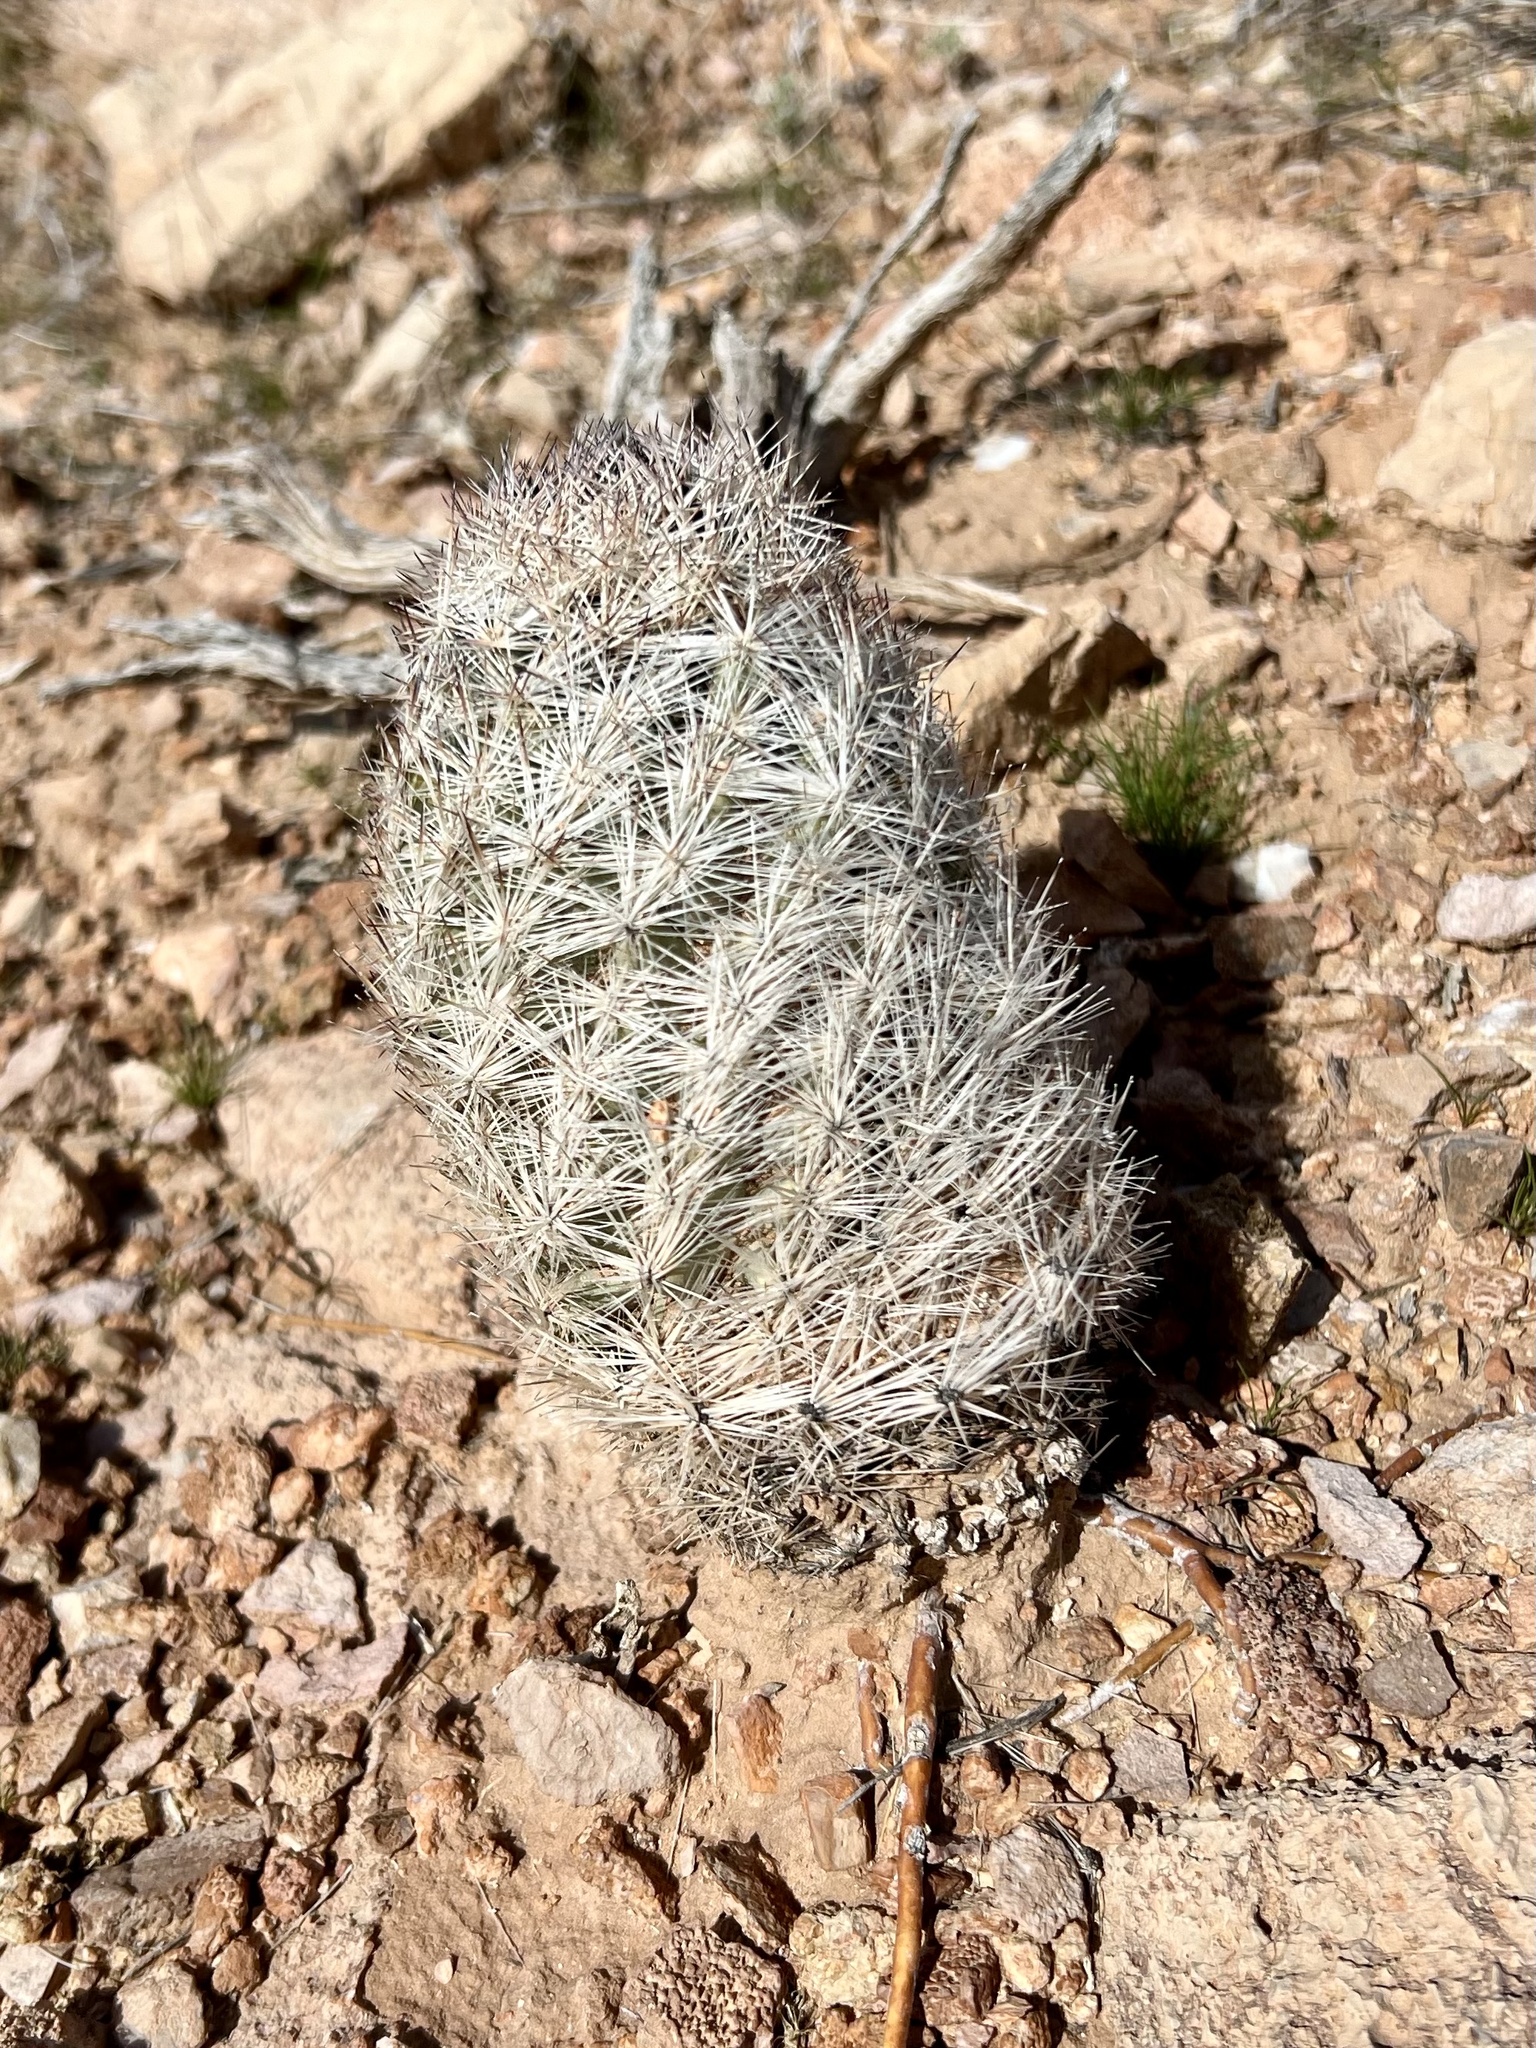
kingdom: Plantae
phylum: Tracheophyta
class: Magnoliopsida
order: Caryophyllales
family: Cactaceae
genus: Pelecyphora
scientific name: Pelecyphora dasyacantha
